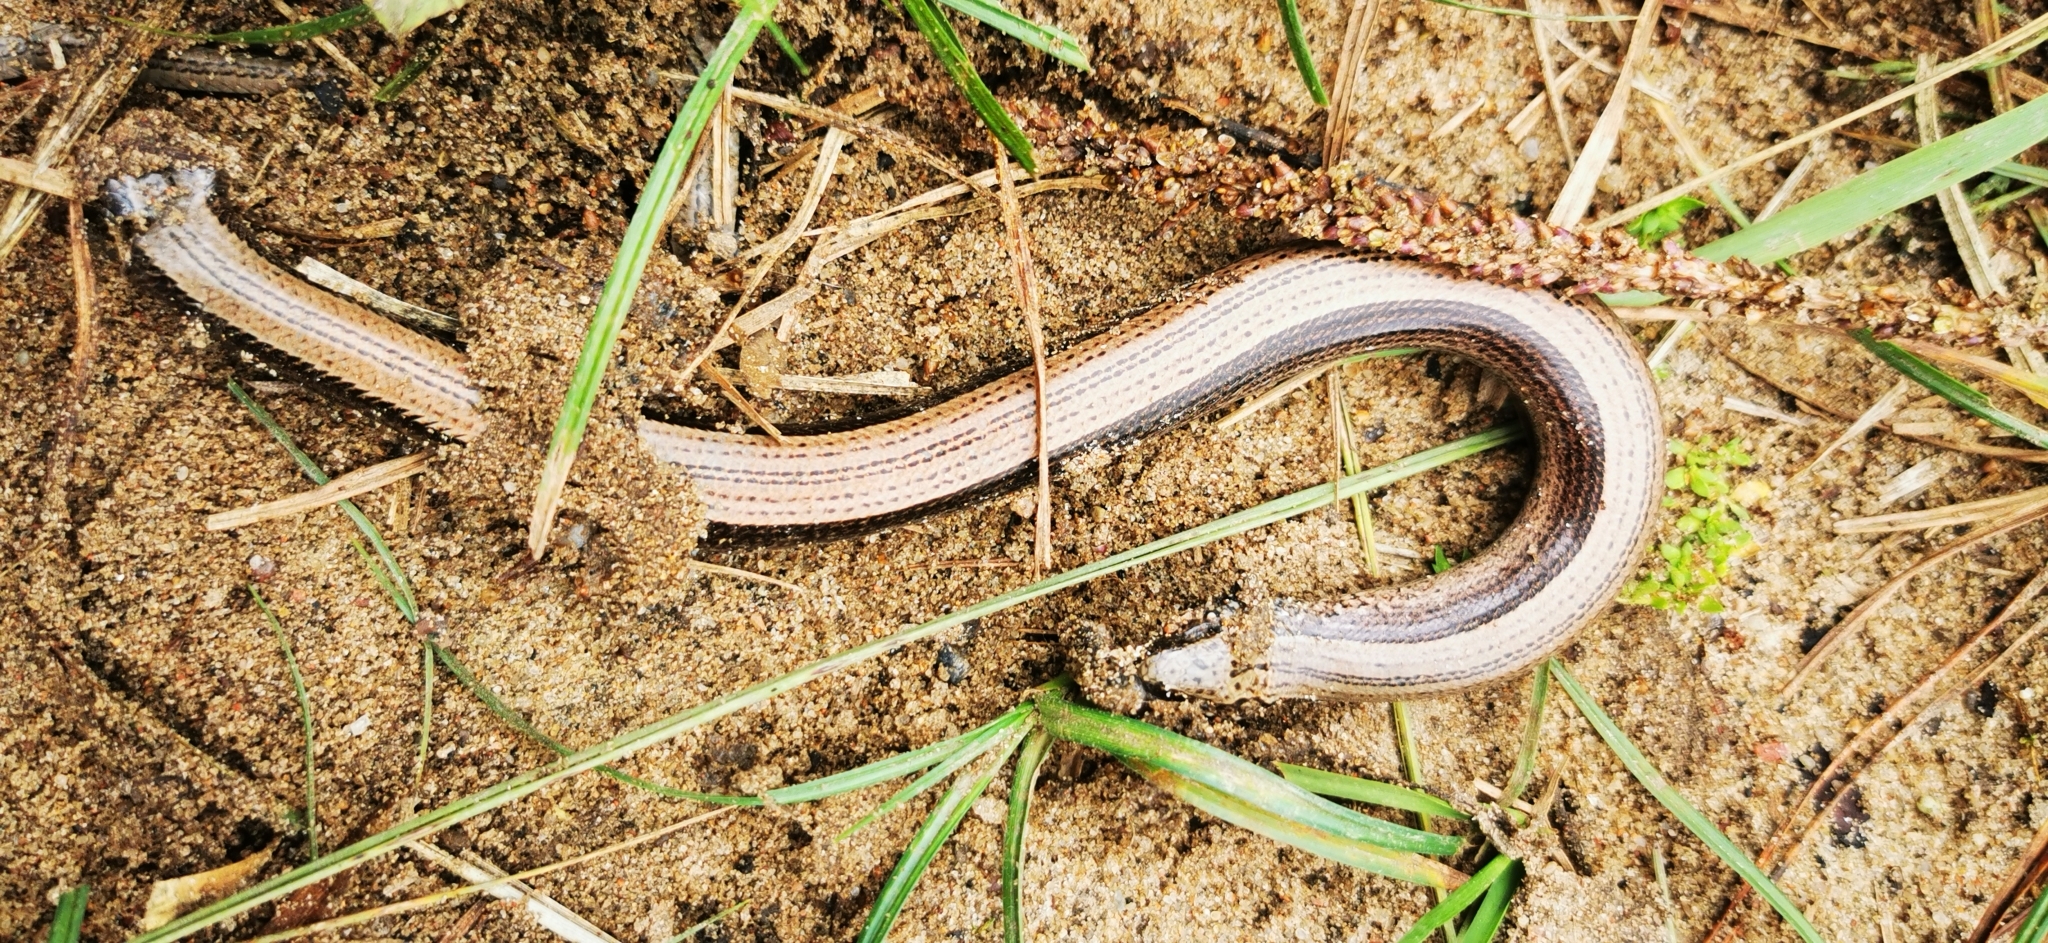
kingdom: Animalia
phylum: Chordata
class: Squamata
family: Anguidae
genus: Anguis
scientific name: Anguis colchica
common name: Slow worm
